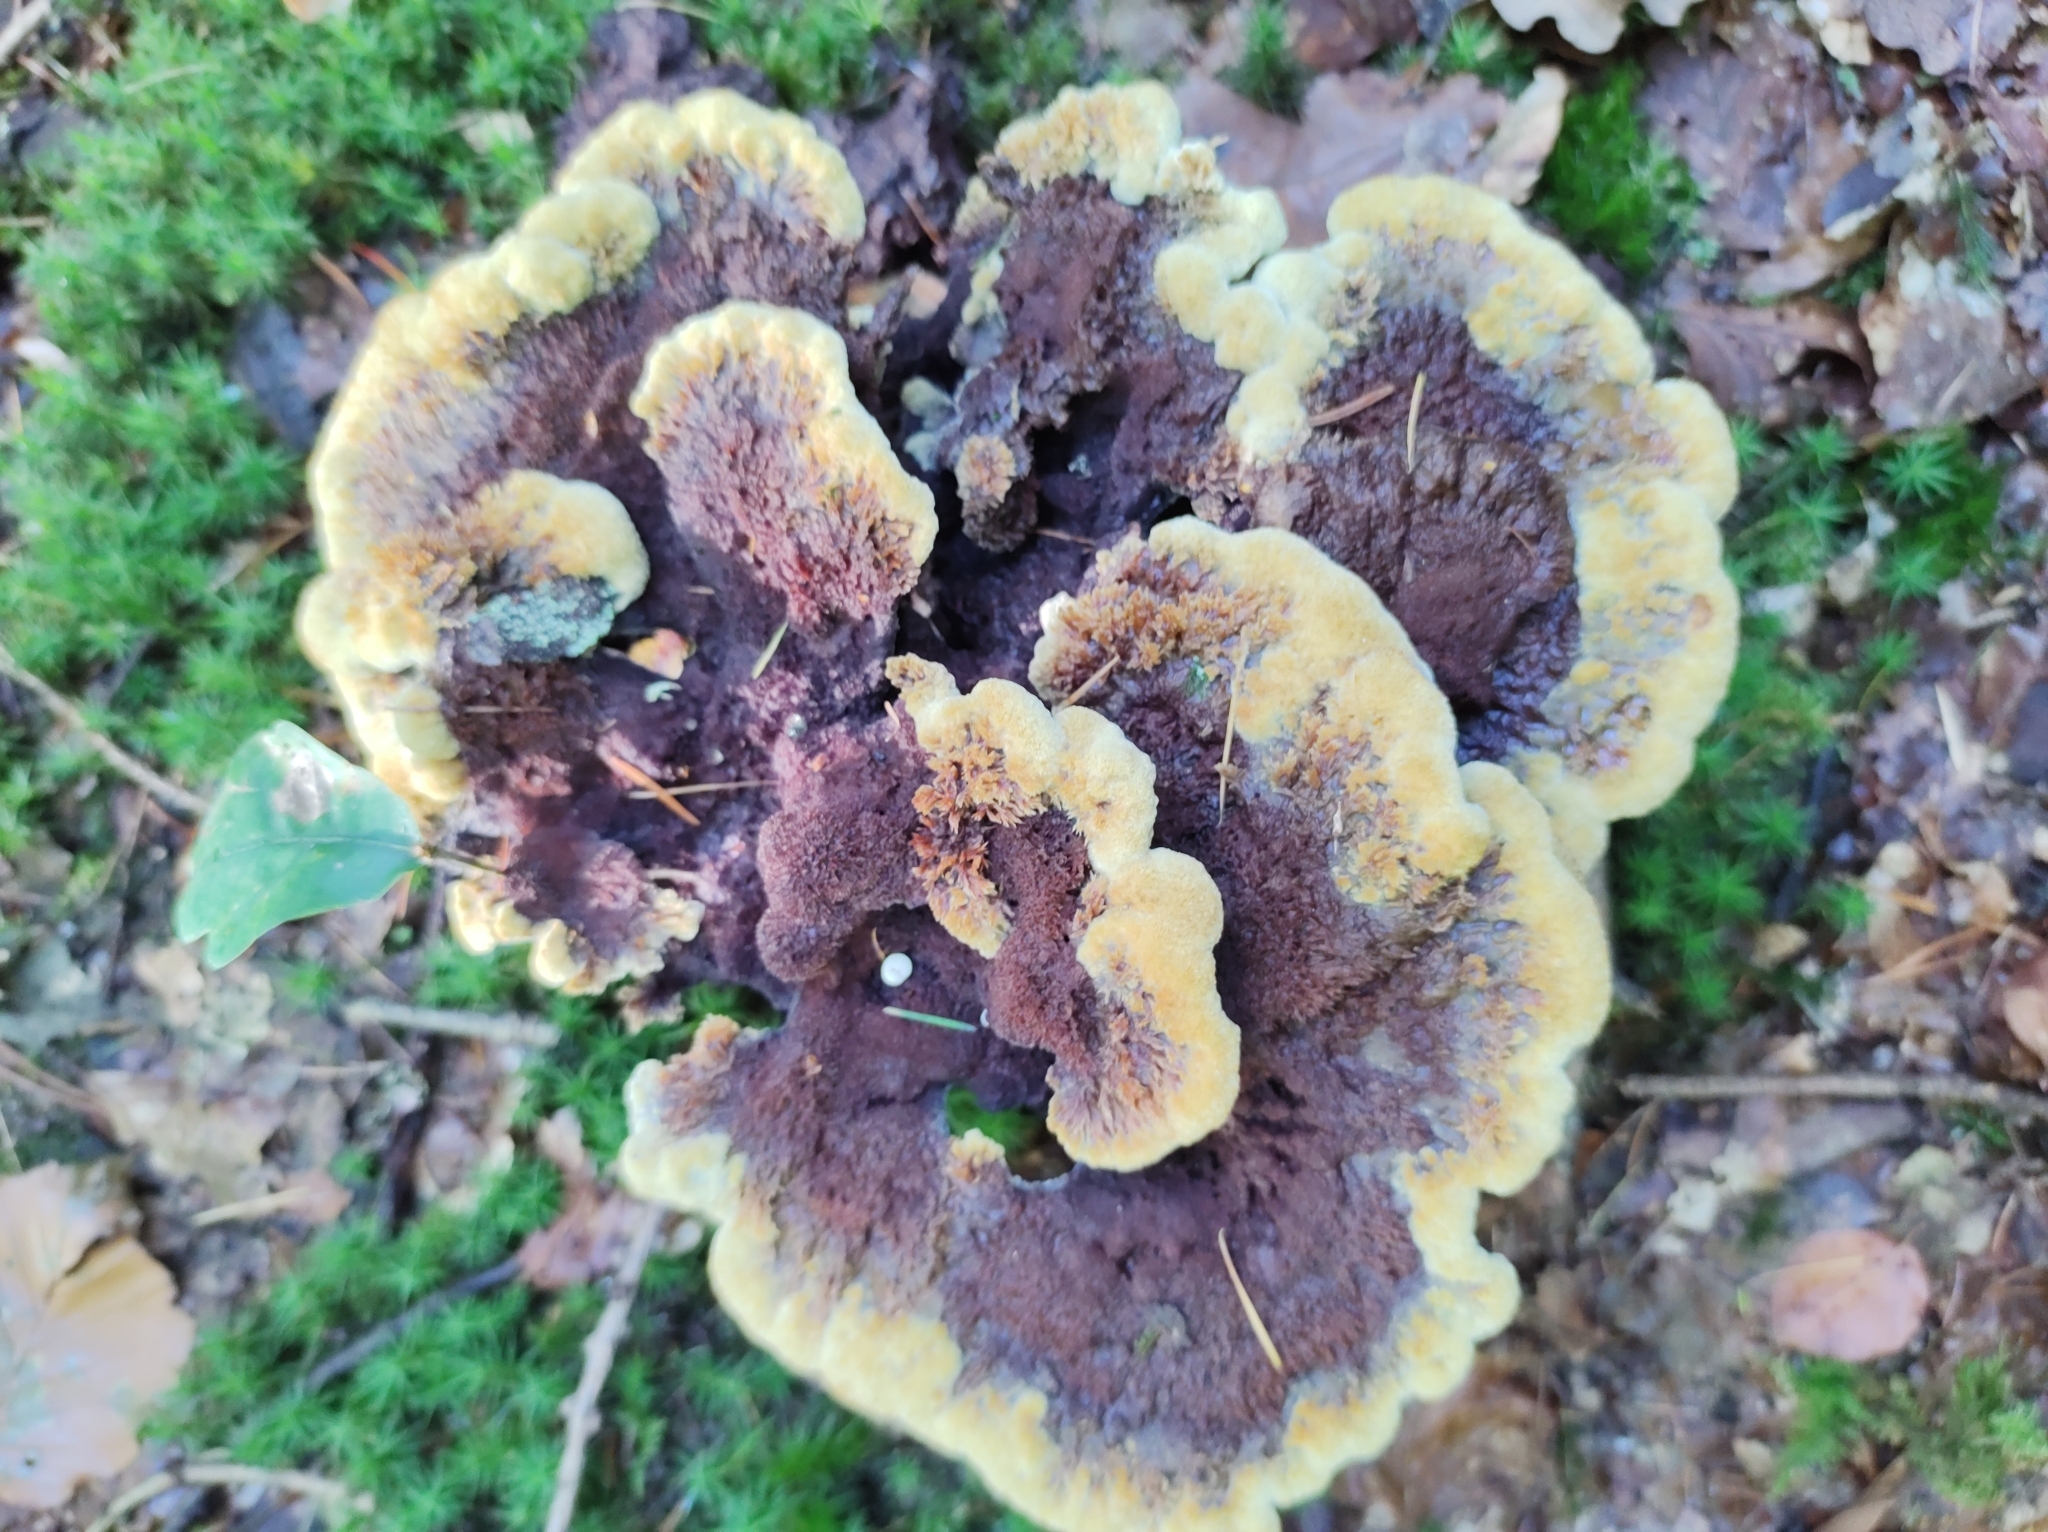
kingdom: Fungi
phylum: Basidiomycota
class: Agaricomycetes
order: Polyporales
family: Laetiporaceae
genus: Phaeolus
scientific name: Phaeolus schweinitzii
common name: Dyer's mazegill
